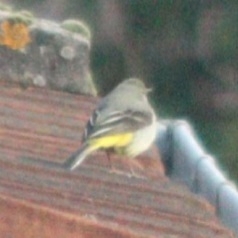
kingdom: Animalia
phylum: Chordata
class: Aves
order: Passeriformes
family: Motacillidae
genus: Motacilla
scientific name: Motacilla cinerea
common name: Grey wagtail
